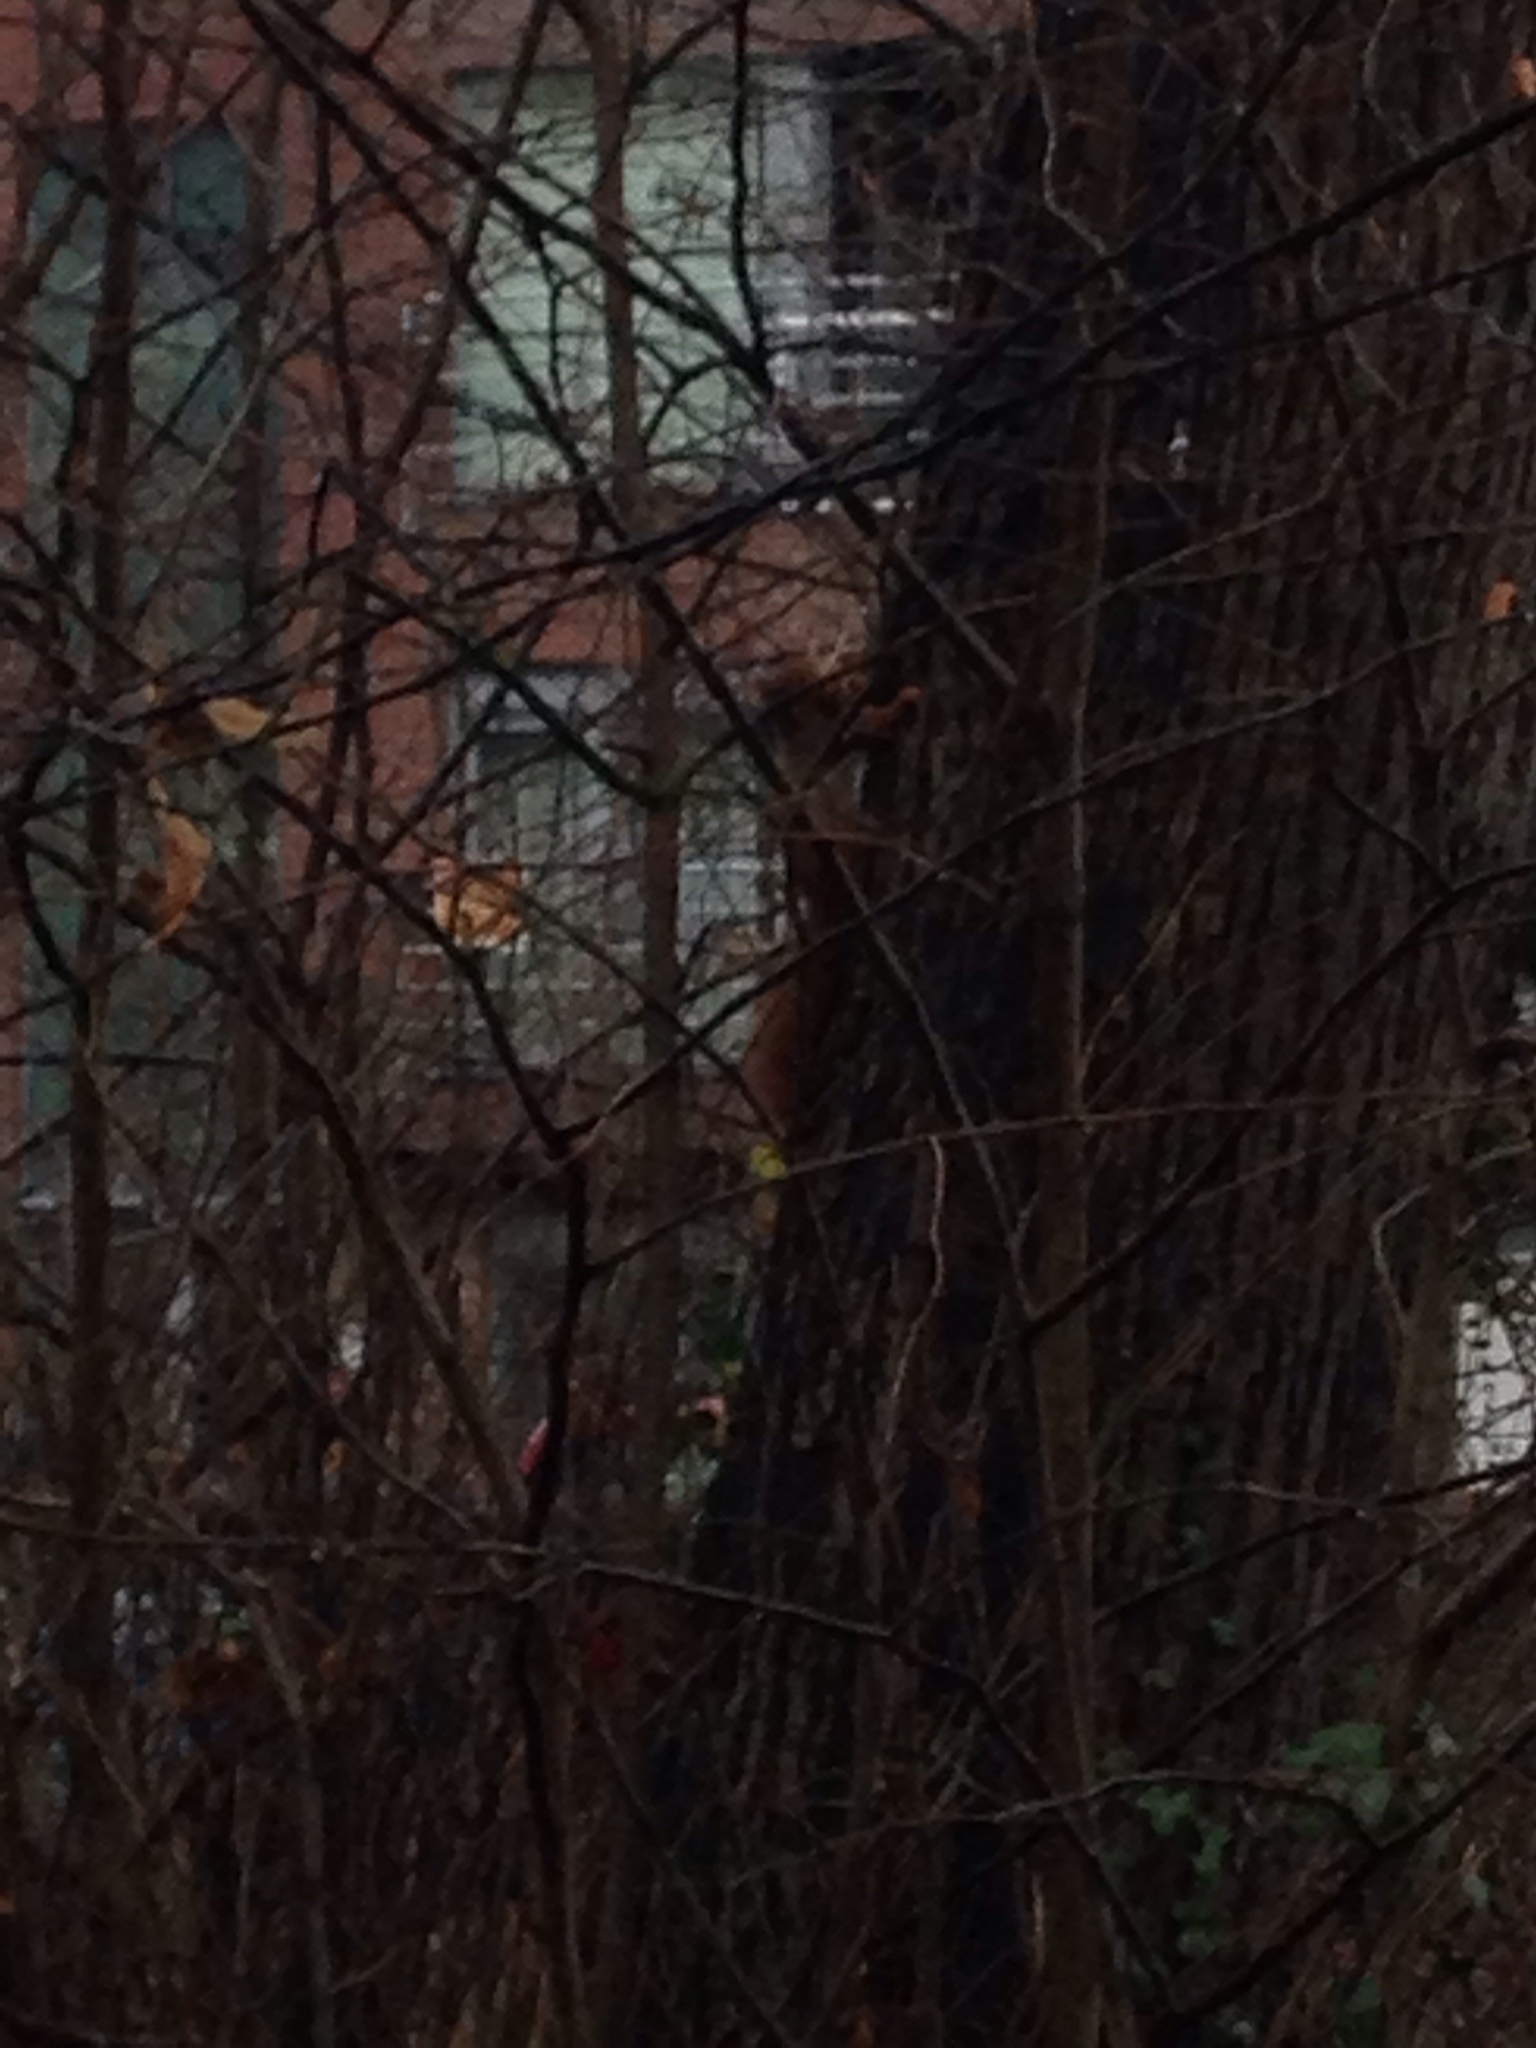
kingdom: Animalia
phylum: Chordata
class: Mammalia
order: Rodentia
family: Sciuridae
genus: Sciurus
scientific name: Sciurus vulgaris
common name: Eurasian red squirrel
